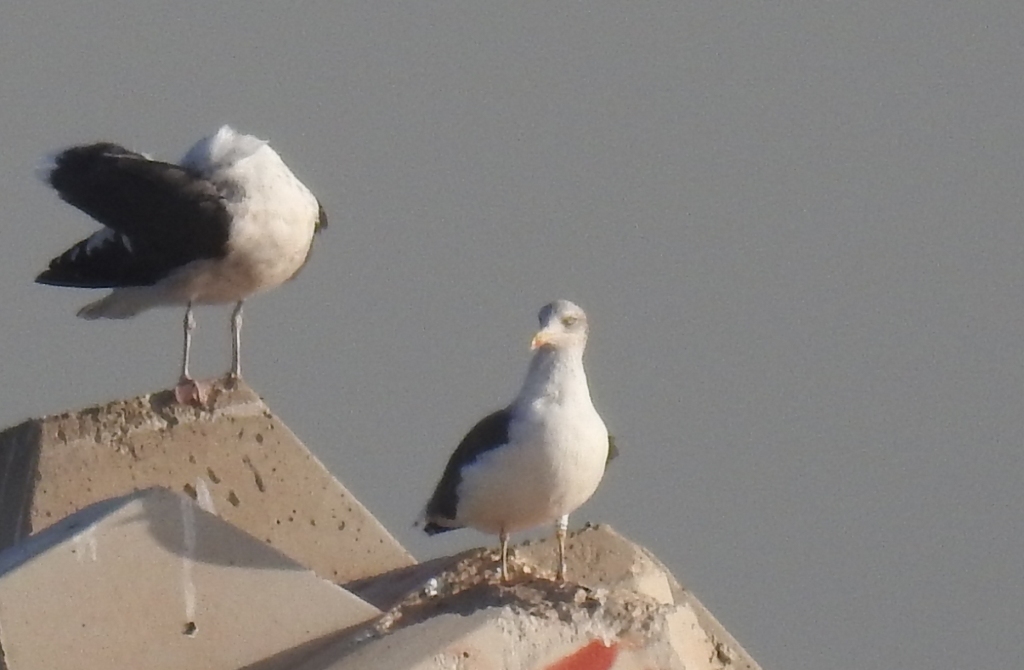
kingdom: Animalia
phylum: Chordata
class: Aves
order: Charadriiformes
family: Laridae
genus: Larus
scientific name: Larus fuscus
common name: Lesser black-backed gull
